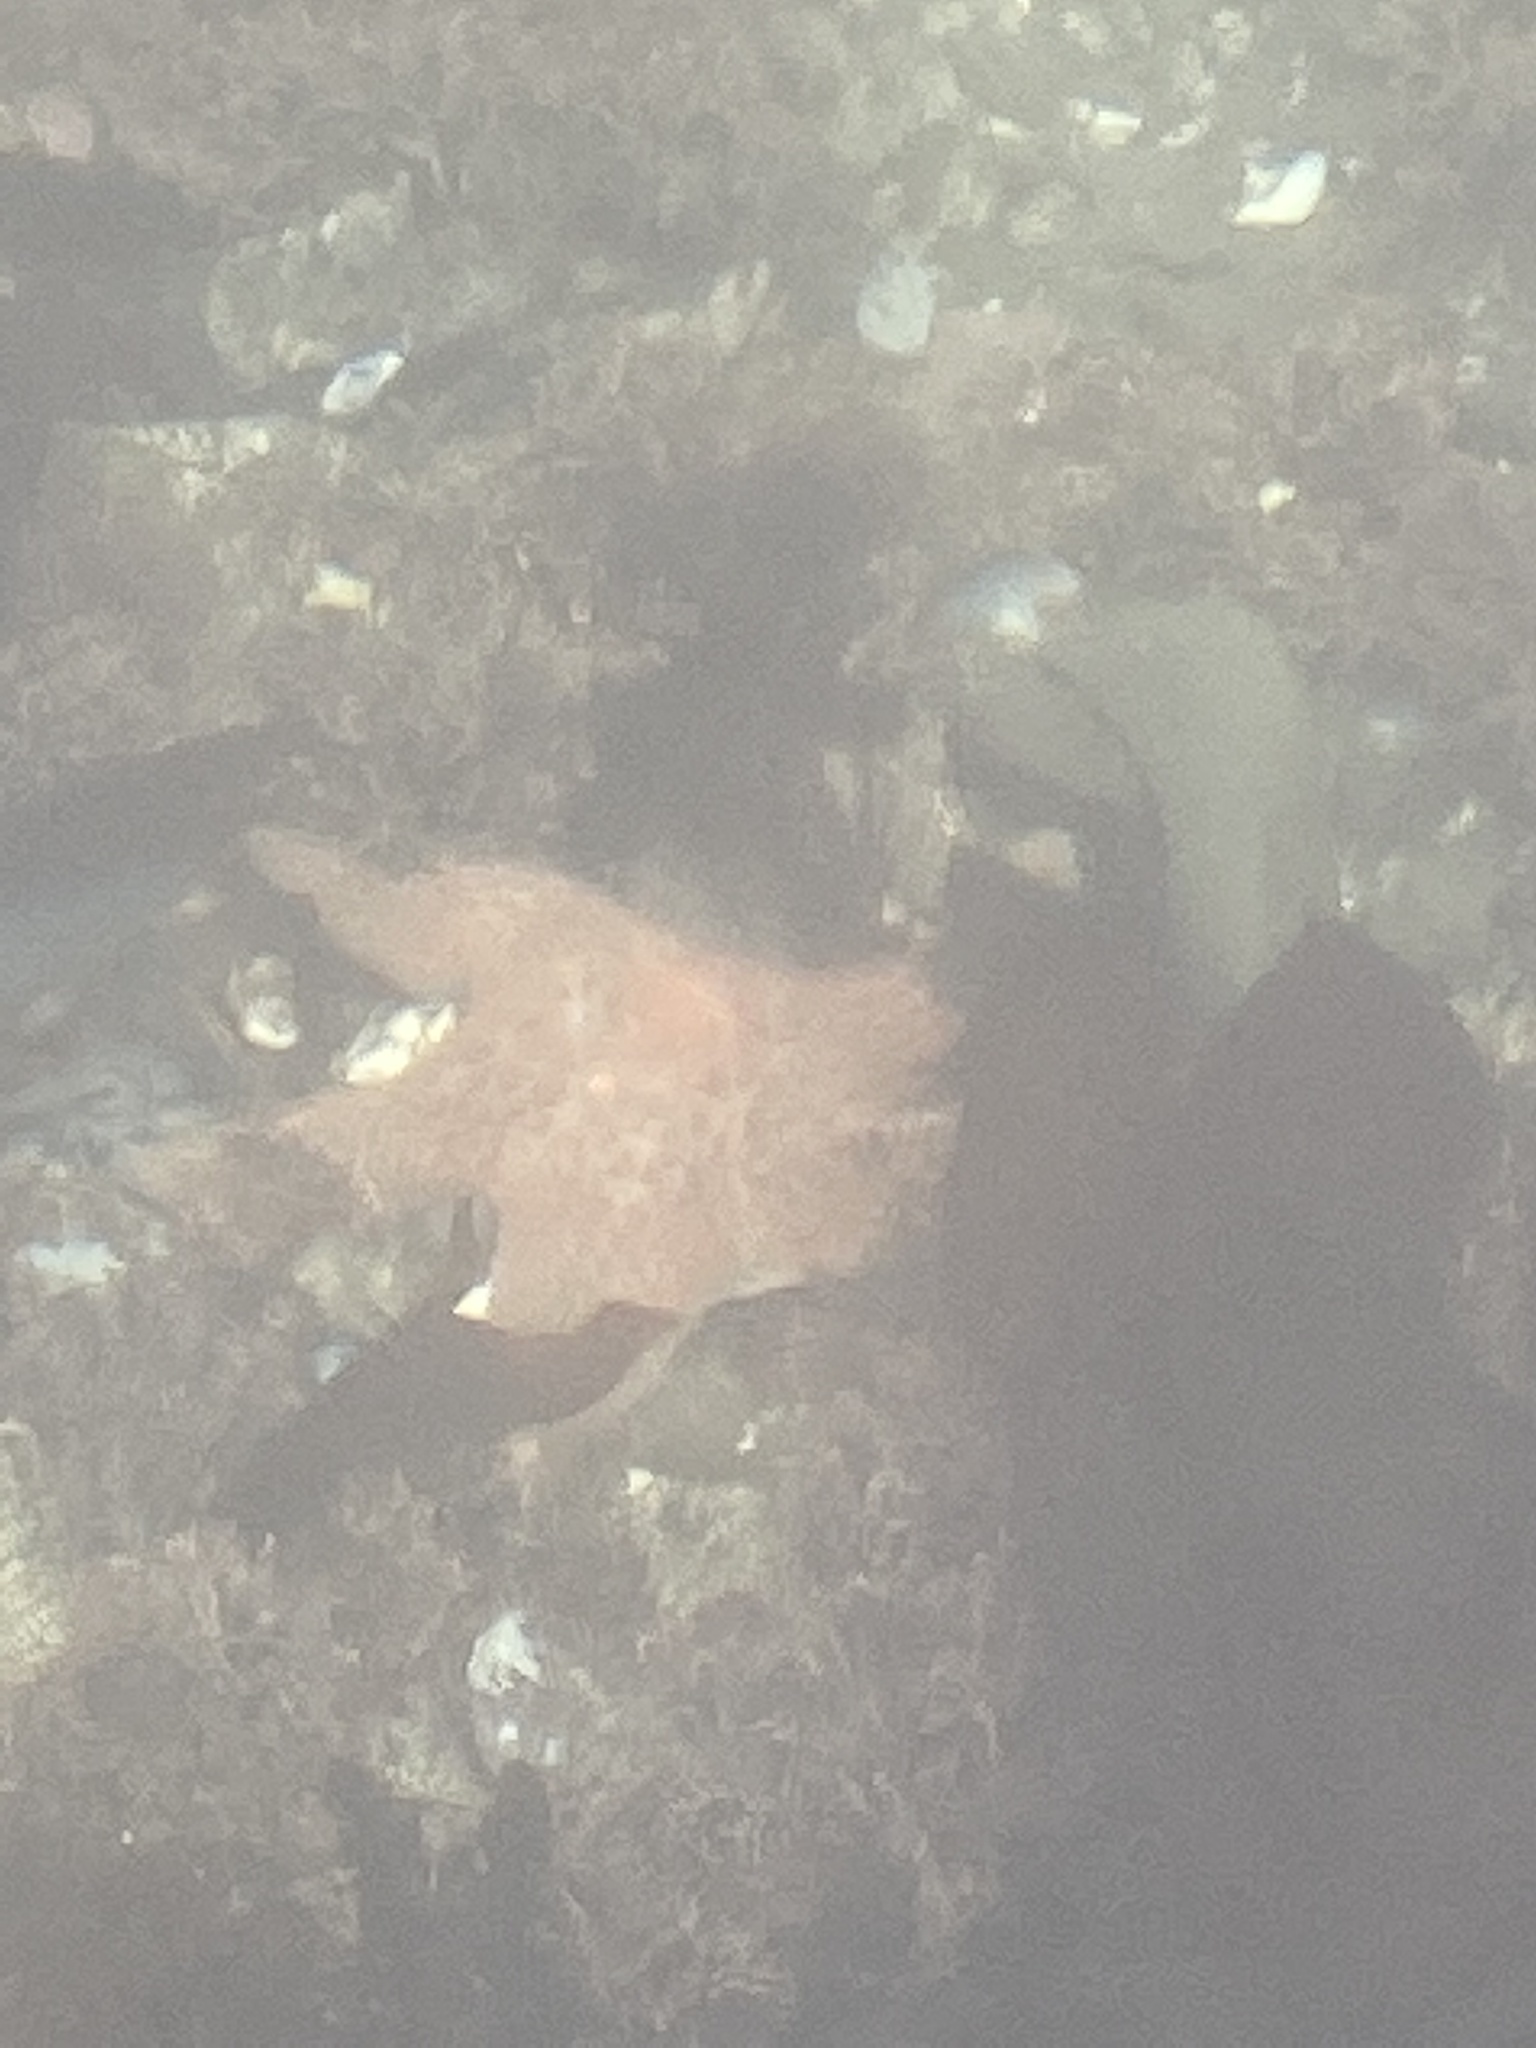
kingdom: Animalia
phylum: Echinodermata
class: Asteroidea
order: Valvatida
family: Asteropseidae
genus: Dermasterias
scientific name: Dermasterias imbricata
